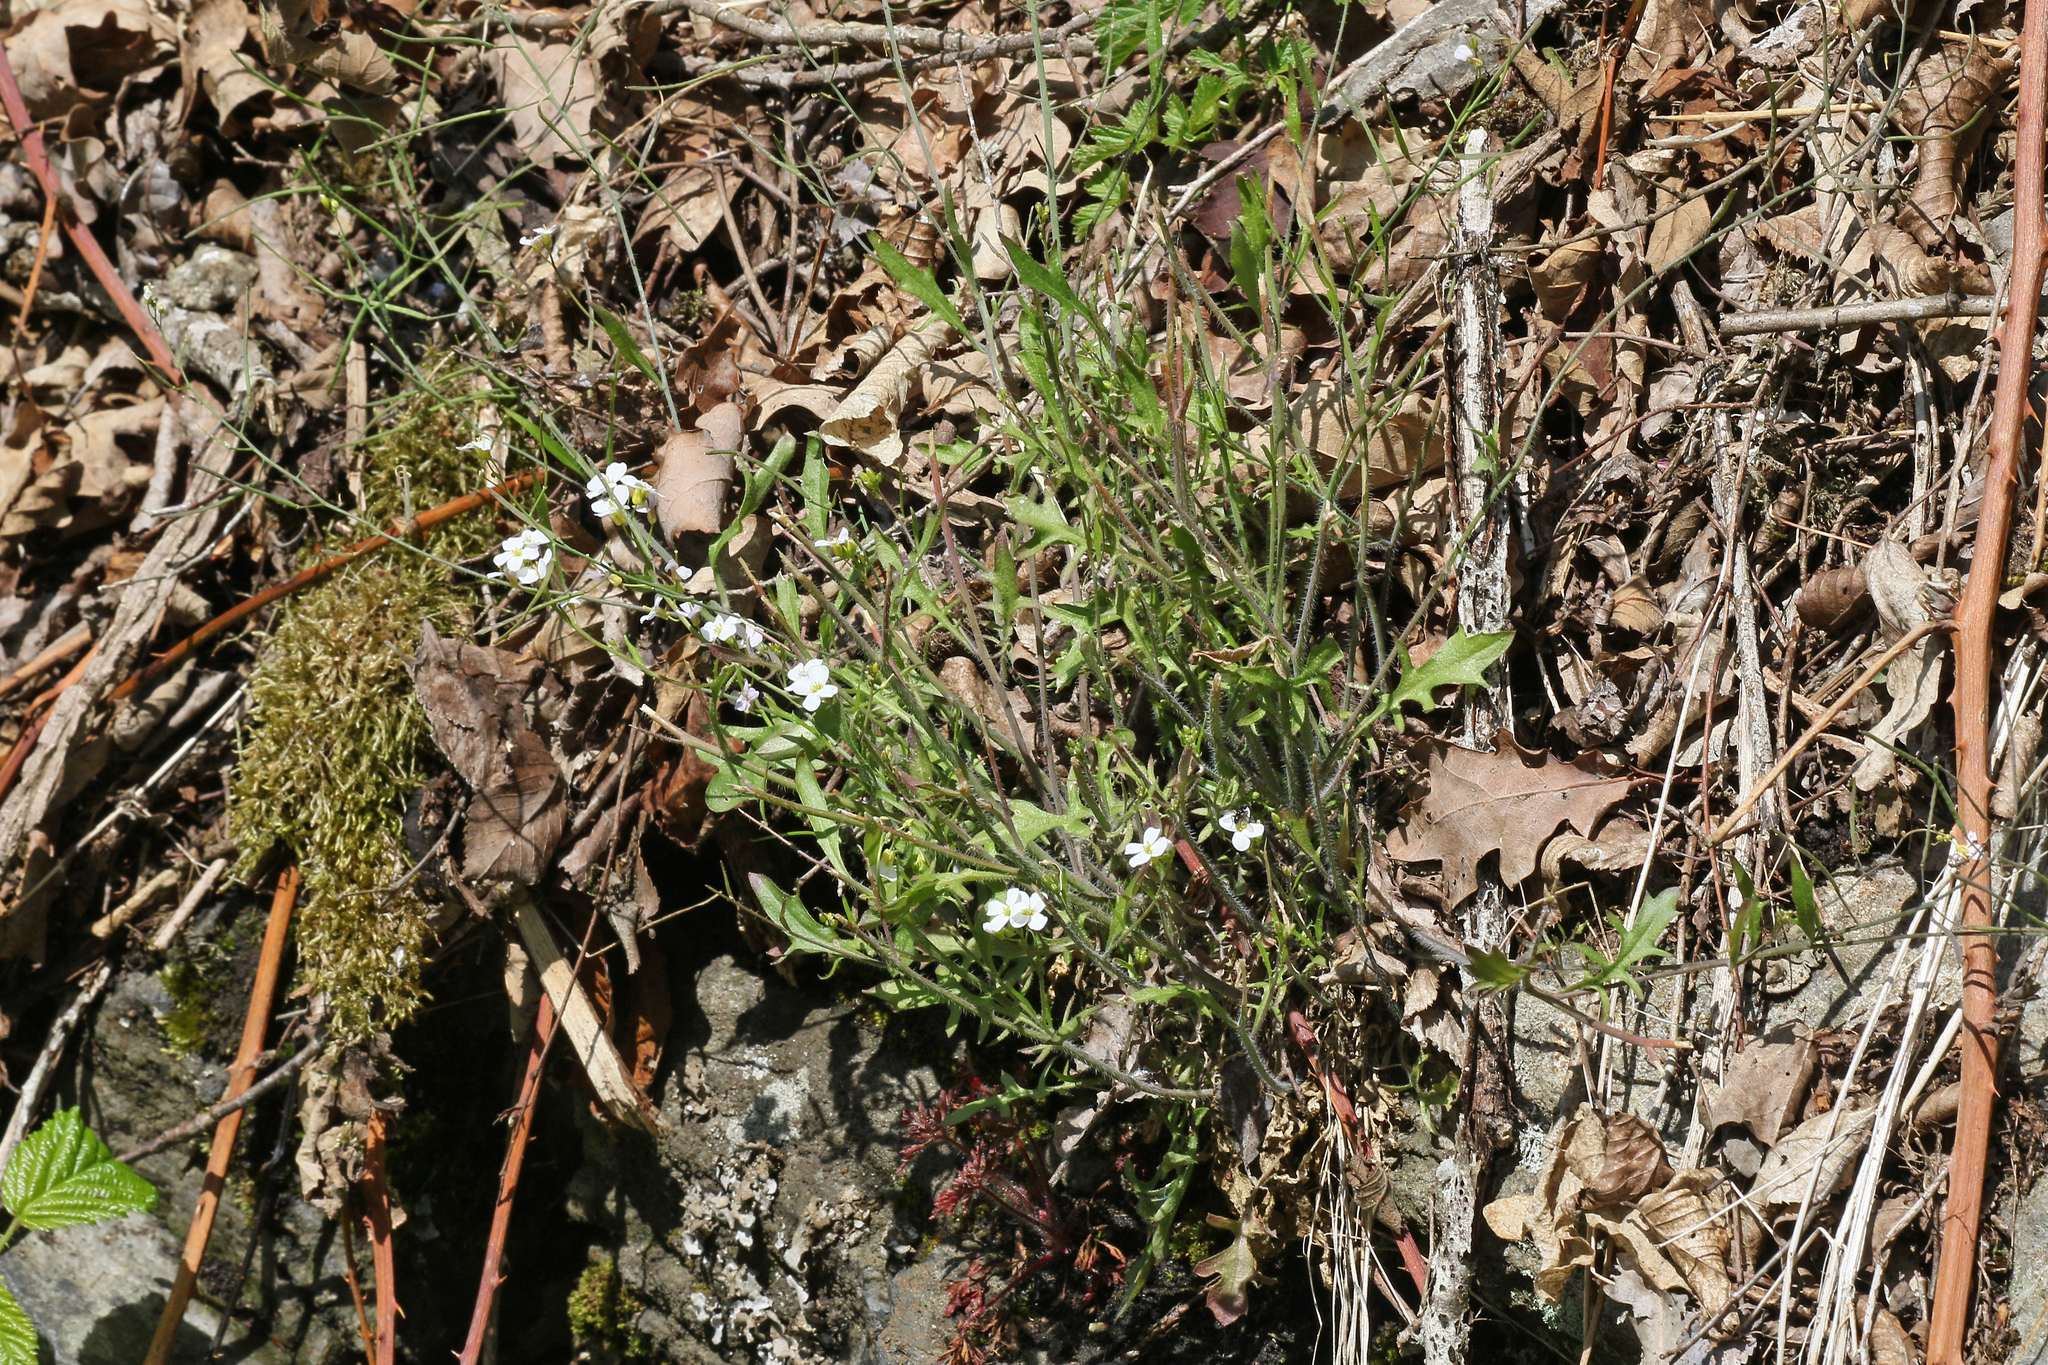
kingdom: Plantae
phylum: Tracheophyta
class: Magnoliopsida
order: Brassicales
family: Brassicaceae
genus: Arabidopsis
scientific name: Arabidopsis arenosa
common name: Sand rock-cress
